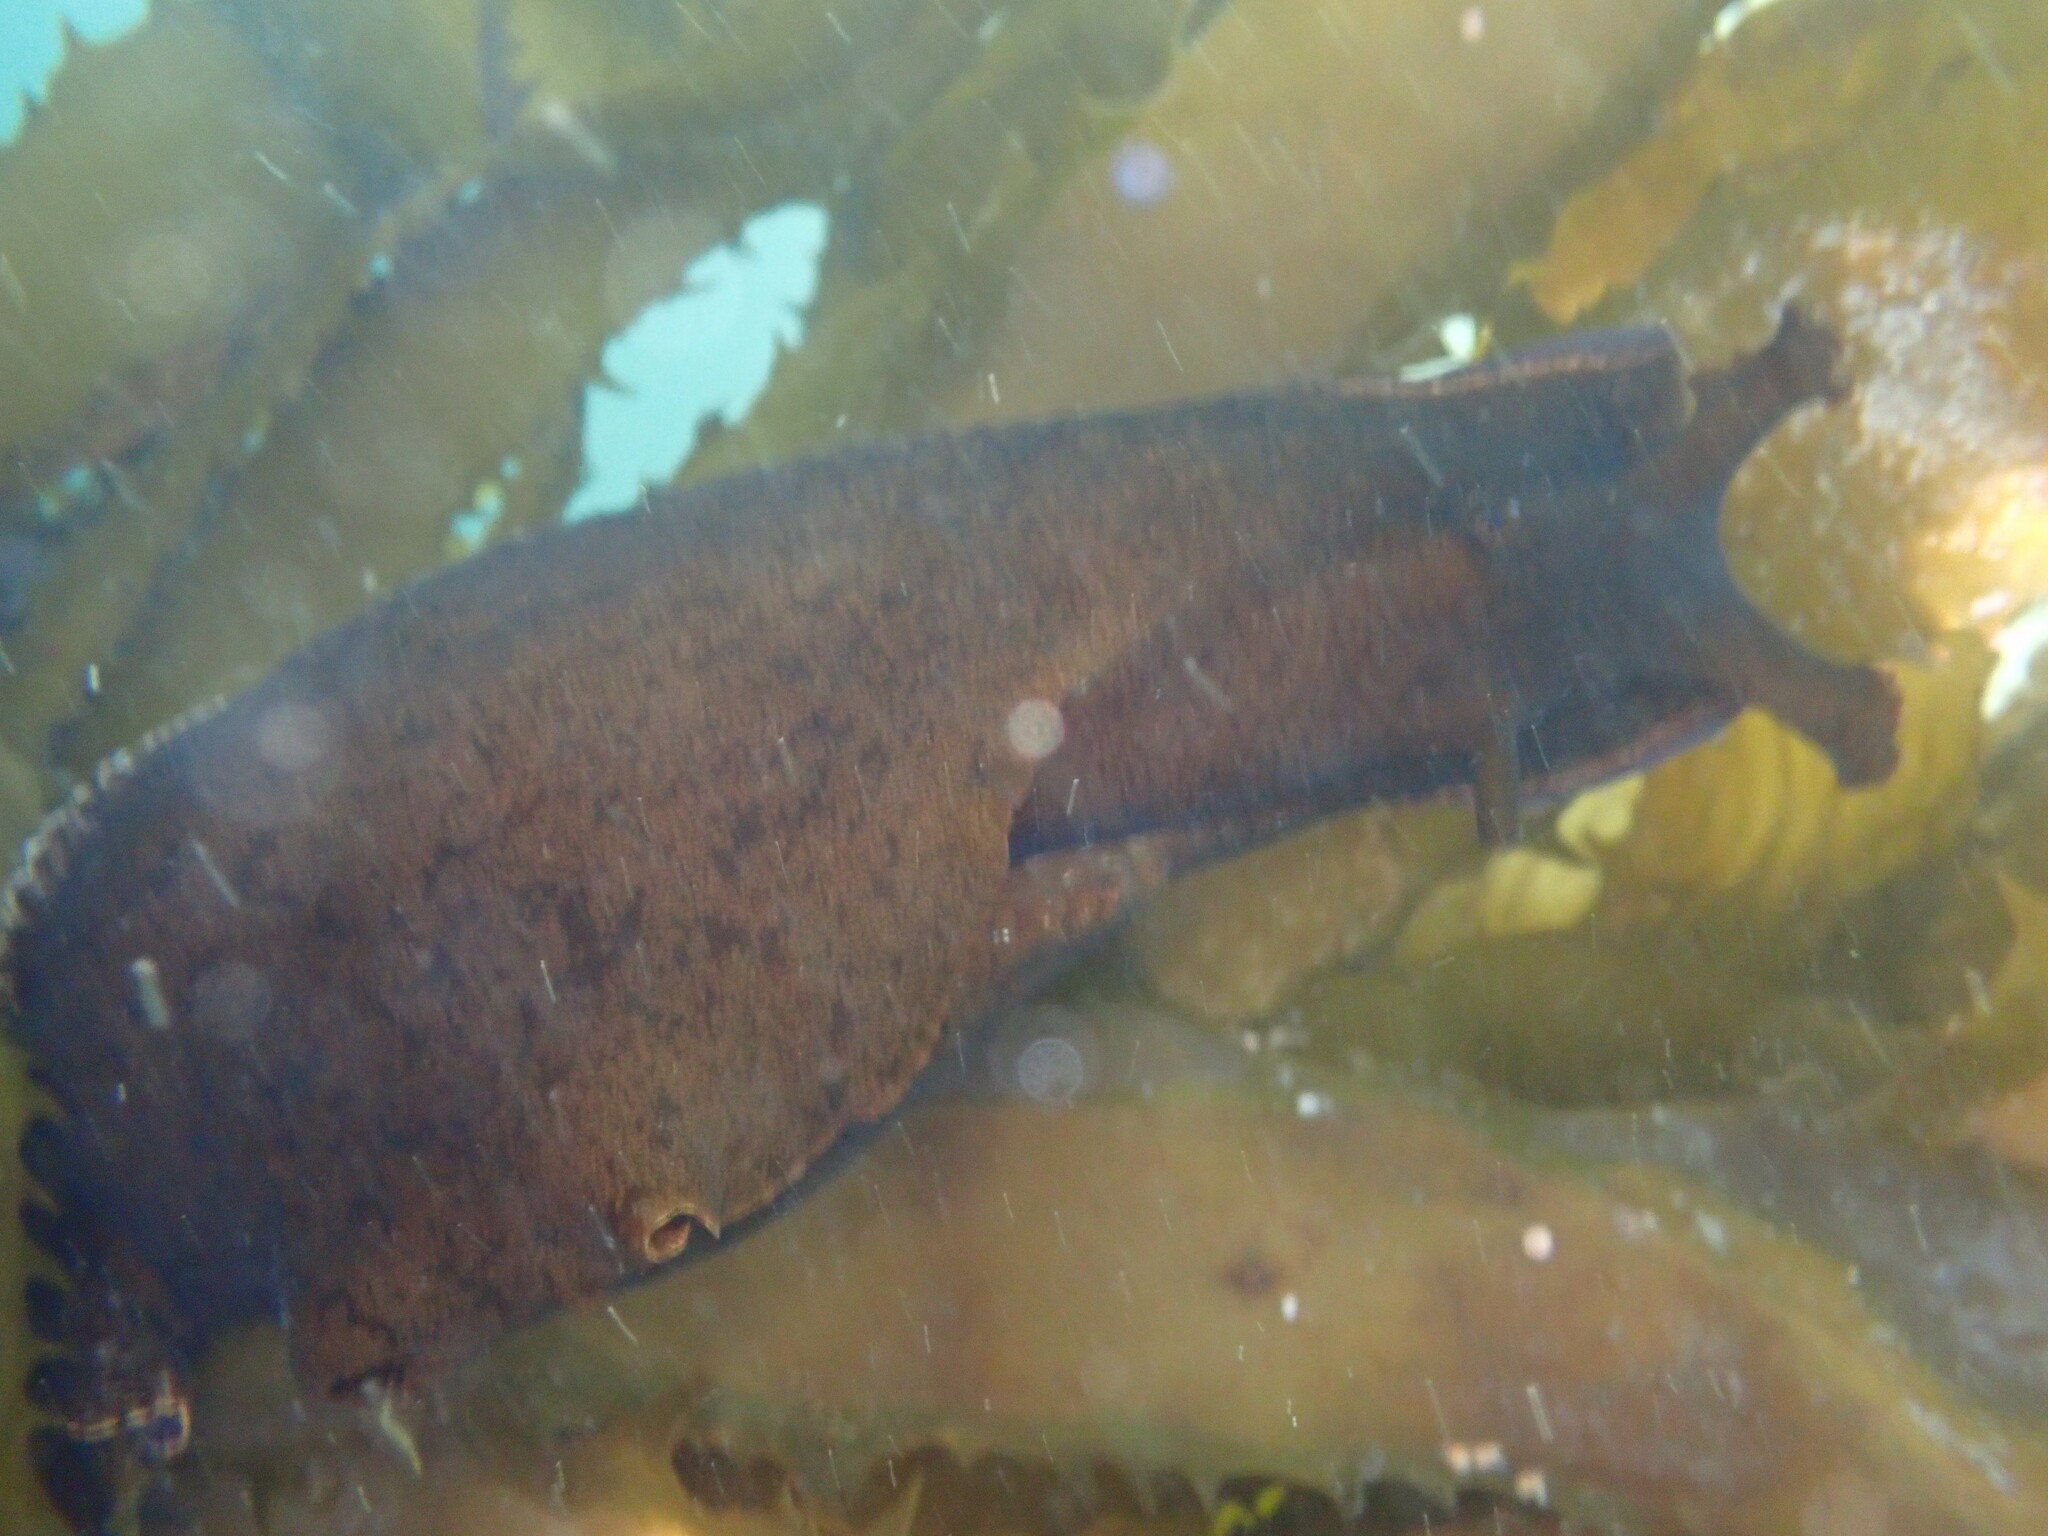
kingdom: Animalia
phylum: Mollusca
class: Gastropoda
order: Aplysiida
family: Aplysiidae
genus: Aplysia
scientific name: Aplysia californica
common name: California seahare
